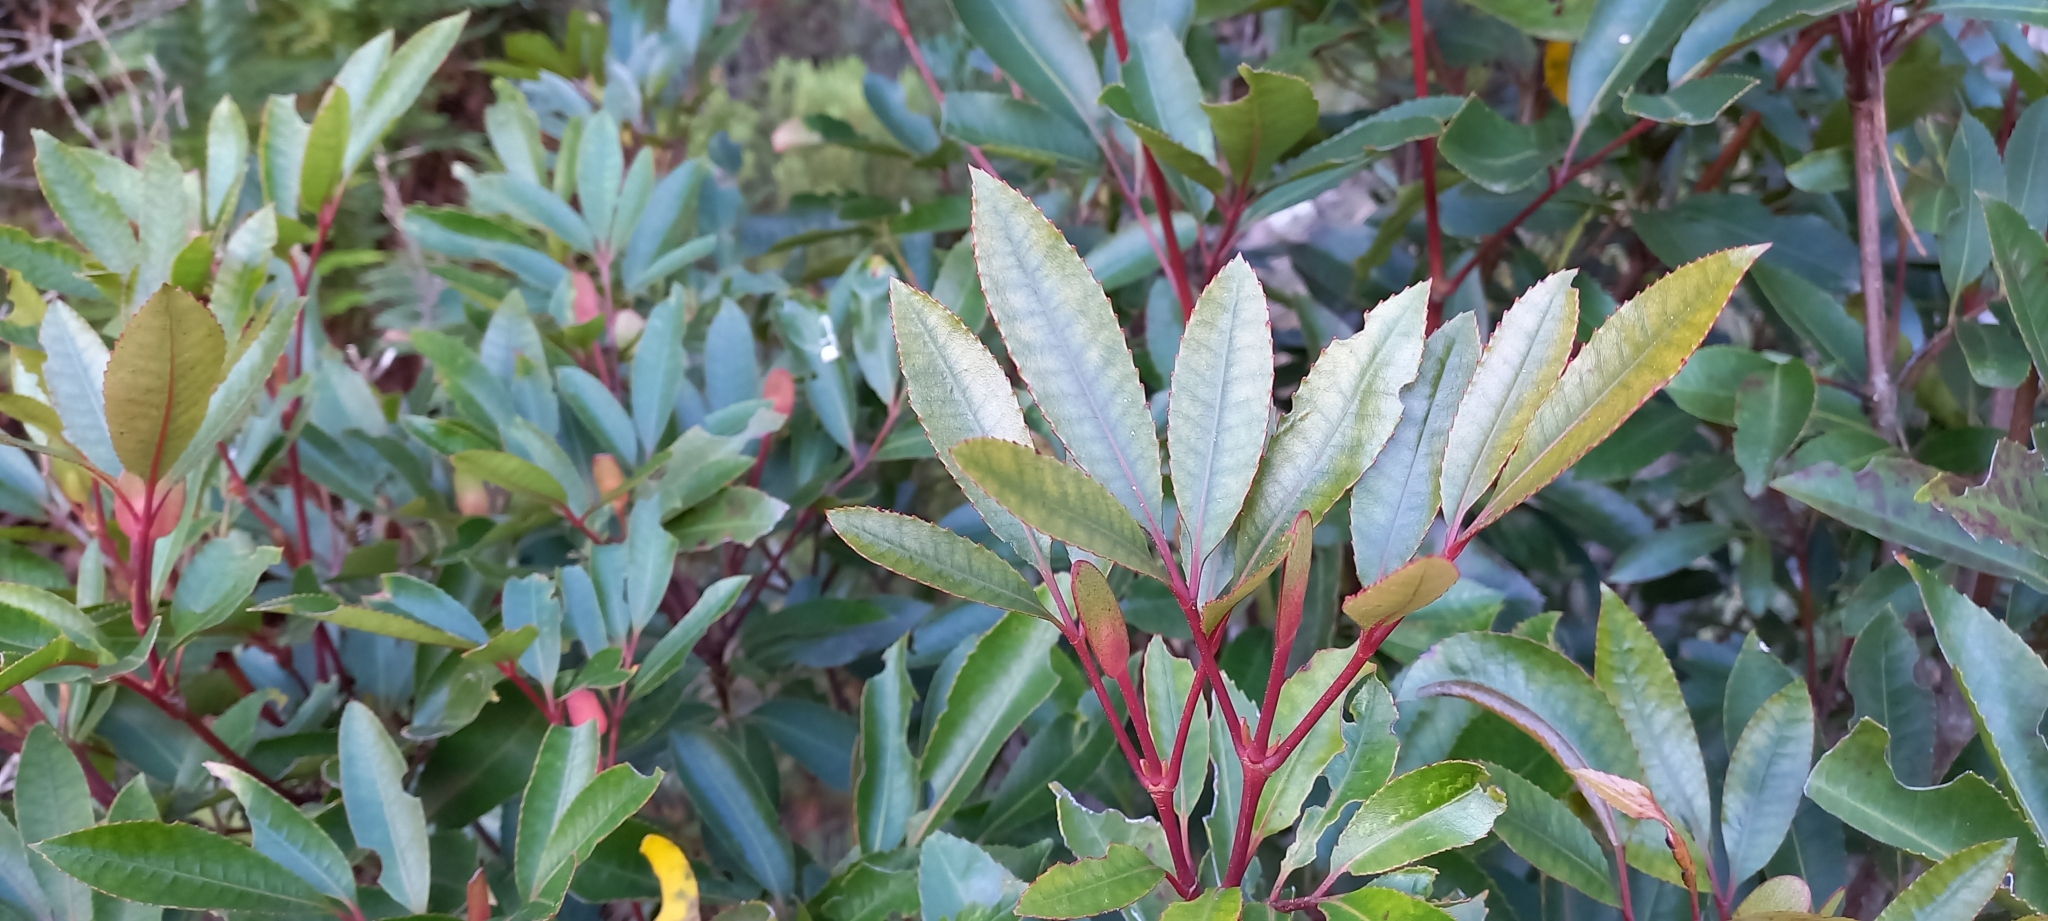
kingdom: Plantae
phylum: Tracheophyta
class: Magnoliopsida
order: Oxalidales
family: Cunoniaceae
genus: Cunonia
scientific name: Cunonia capensis
